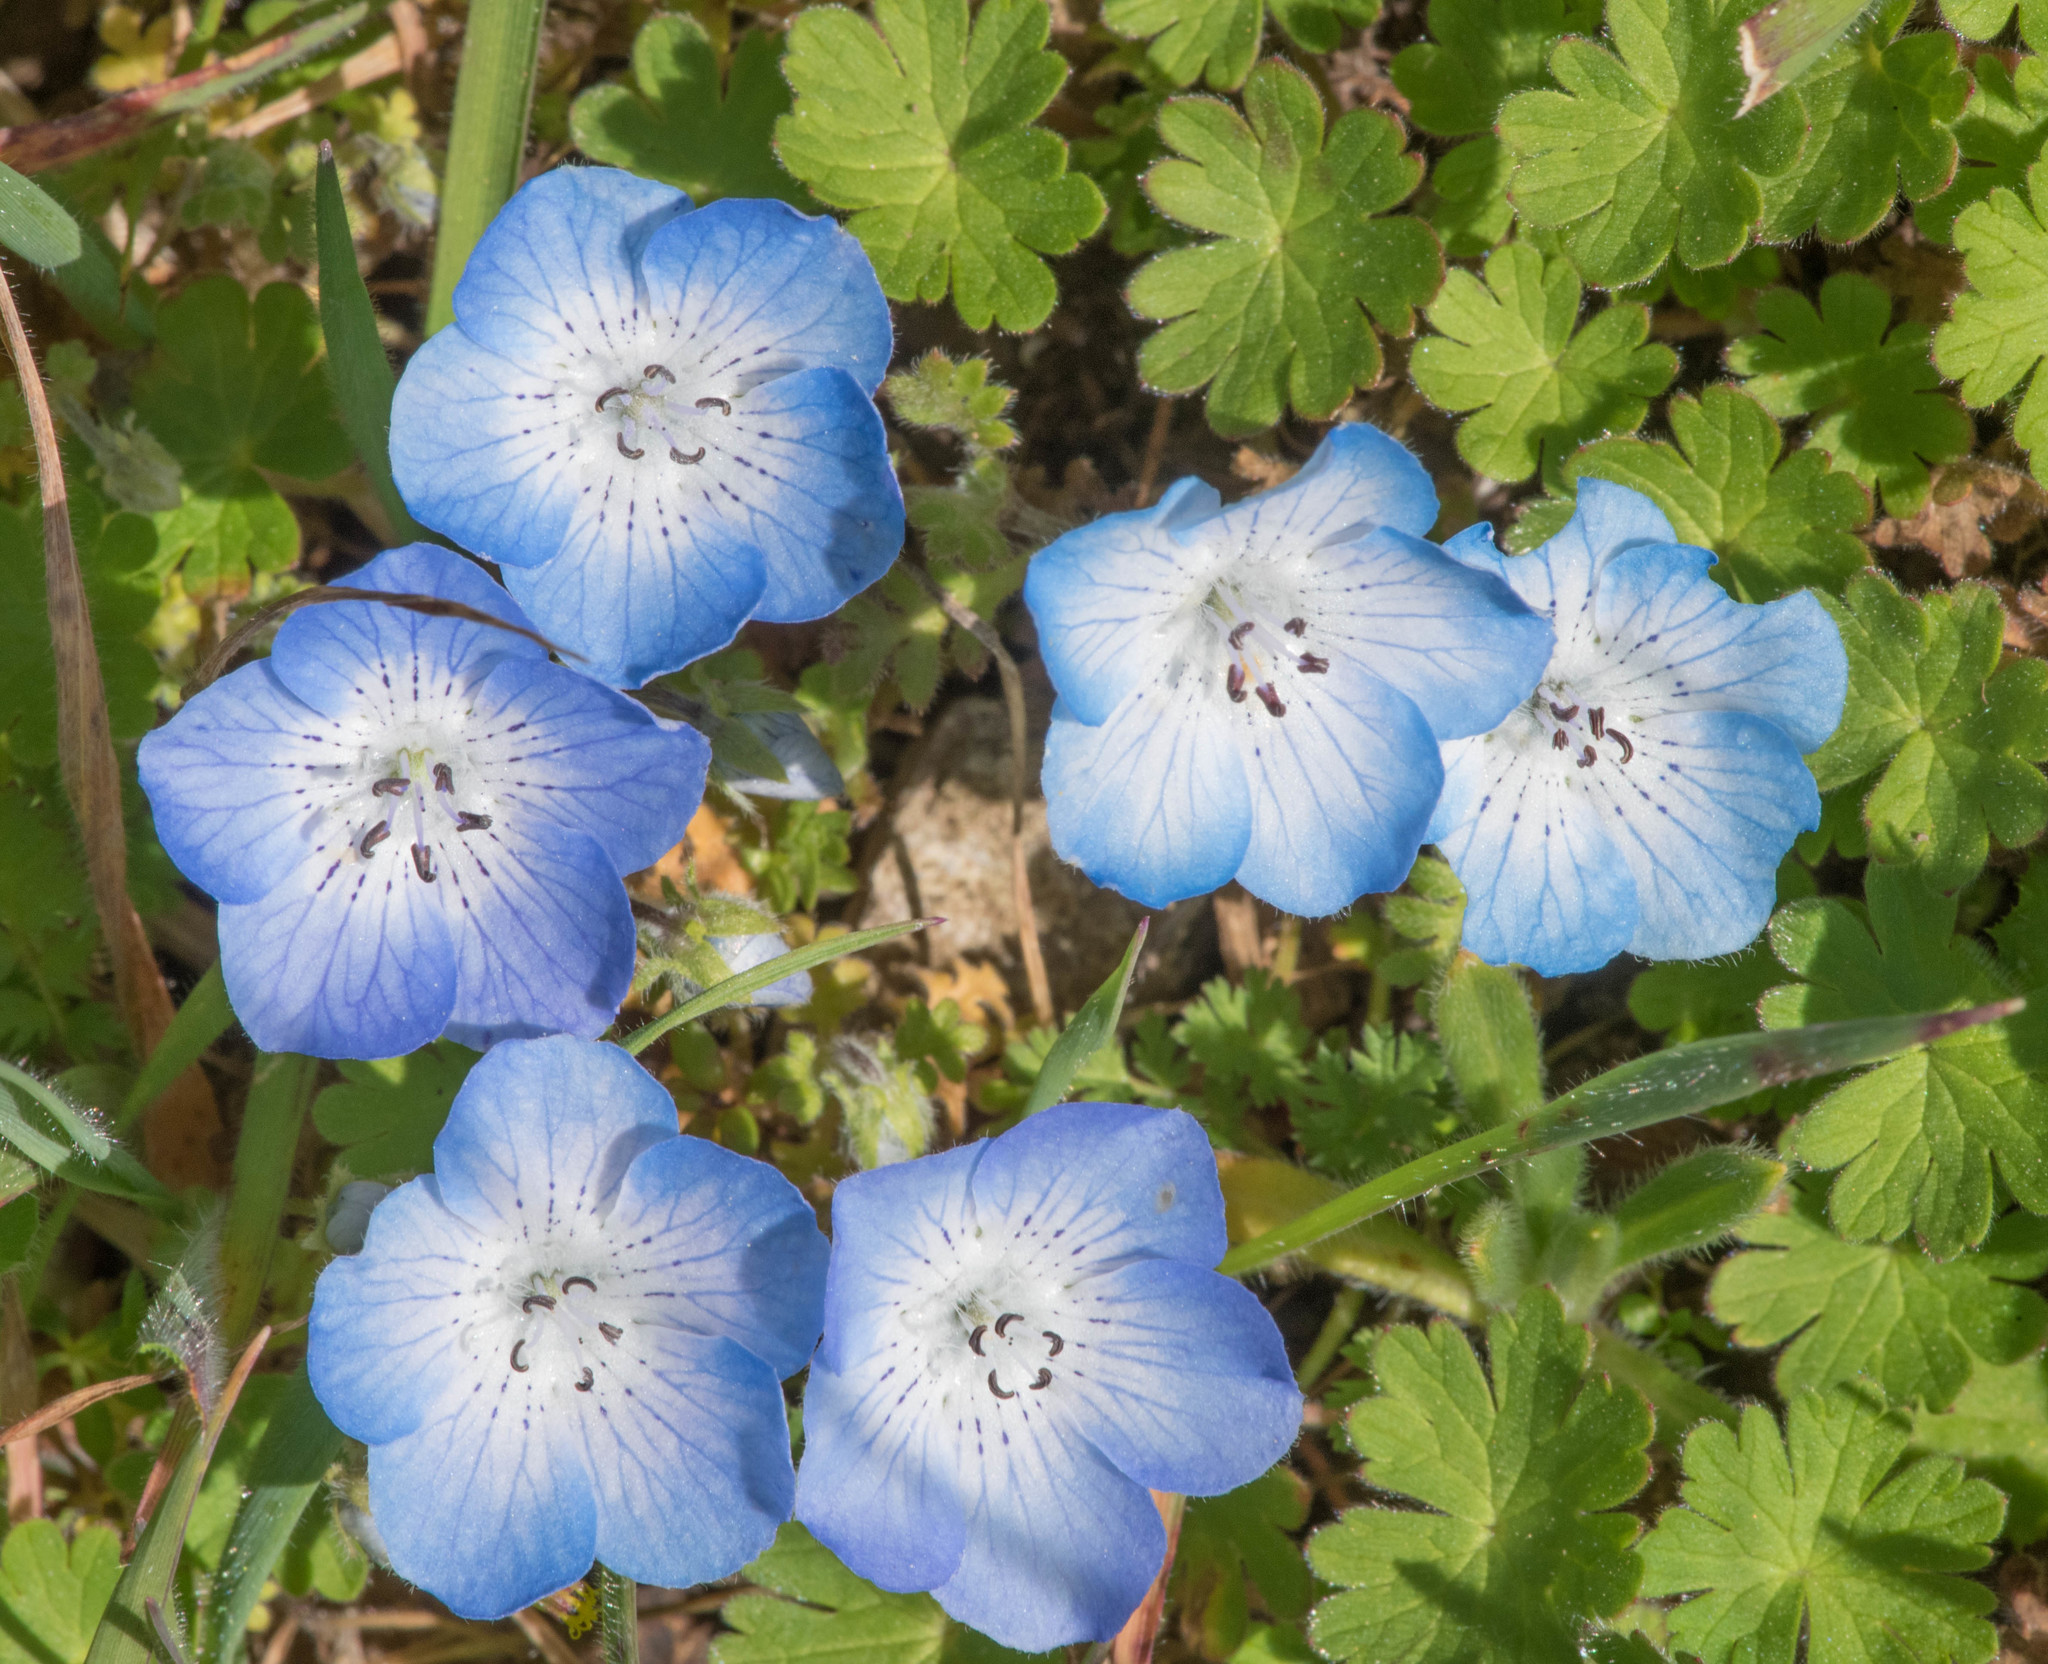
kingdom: Plantae
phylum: Tracheophyta
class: Magnoliopsida
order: Boraginales
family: Hydrophyllaceae
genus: Nemophila
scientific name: Nemophila menziesii
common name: Baby's-blue-eyes
